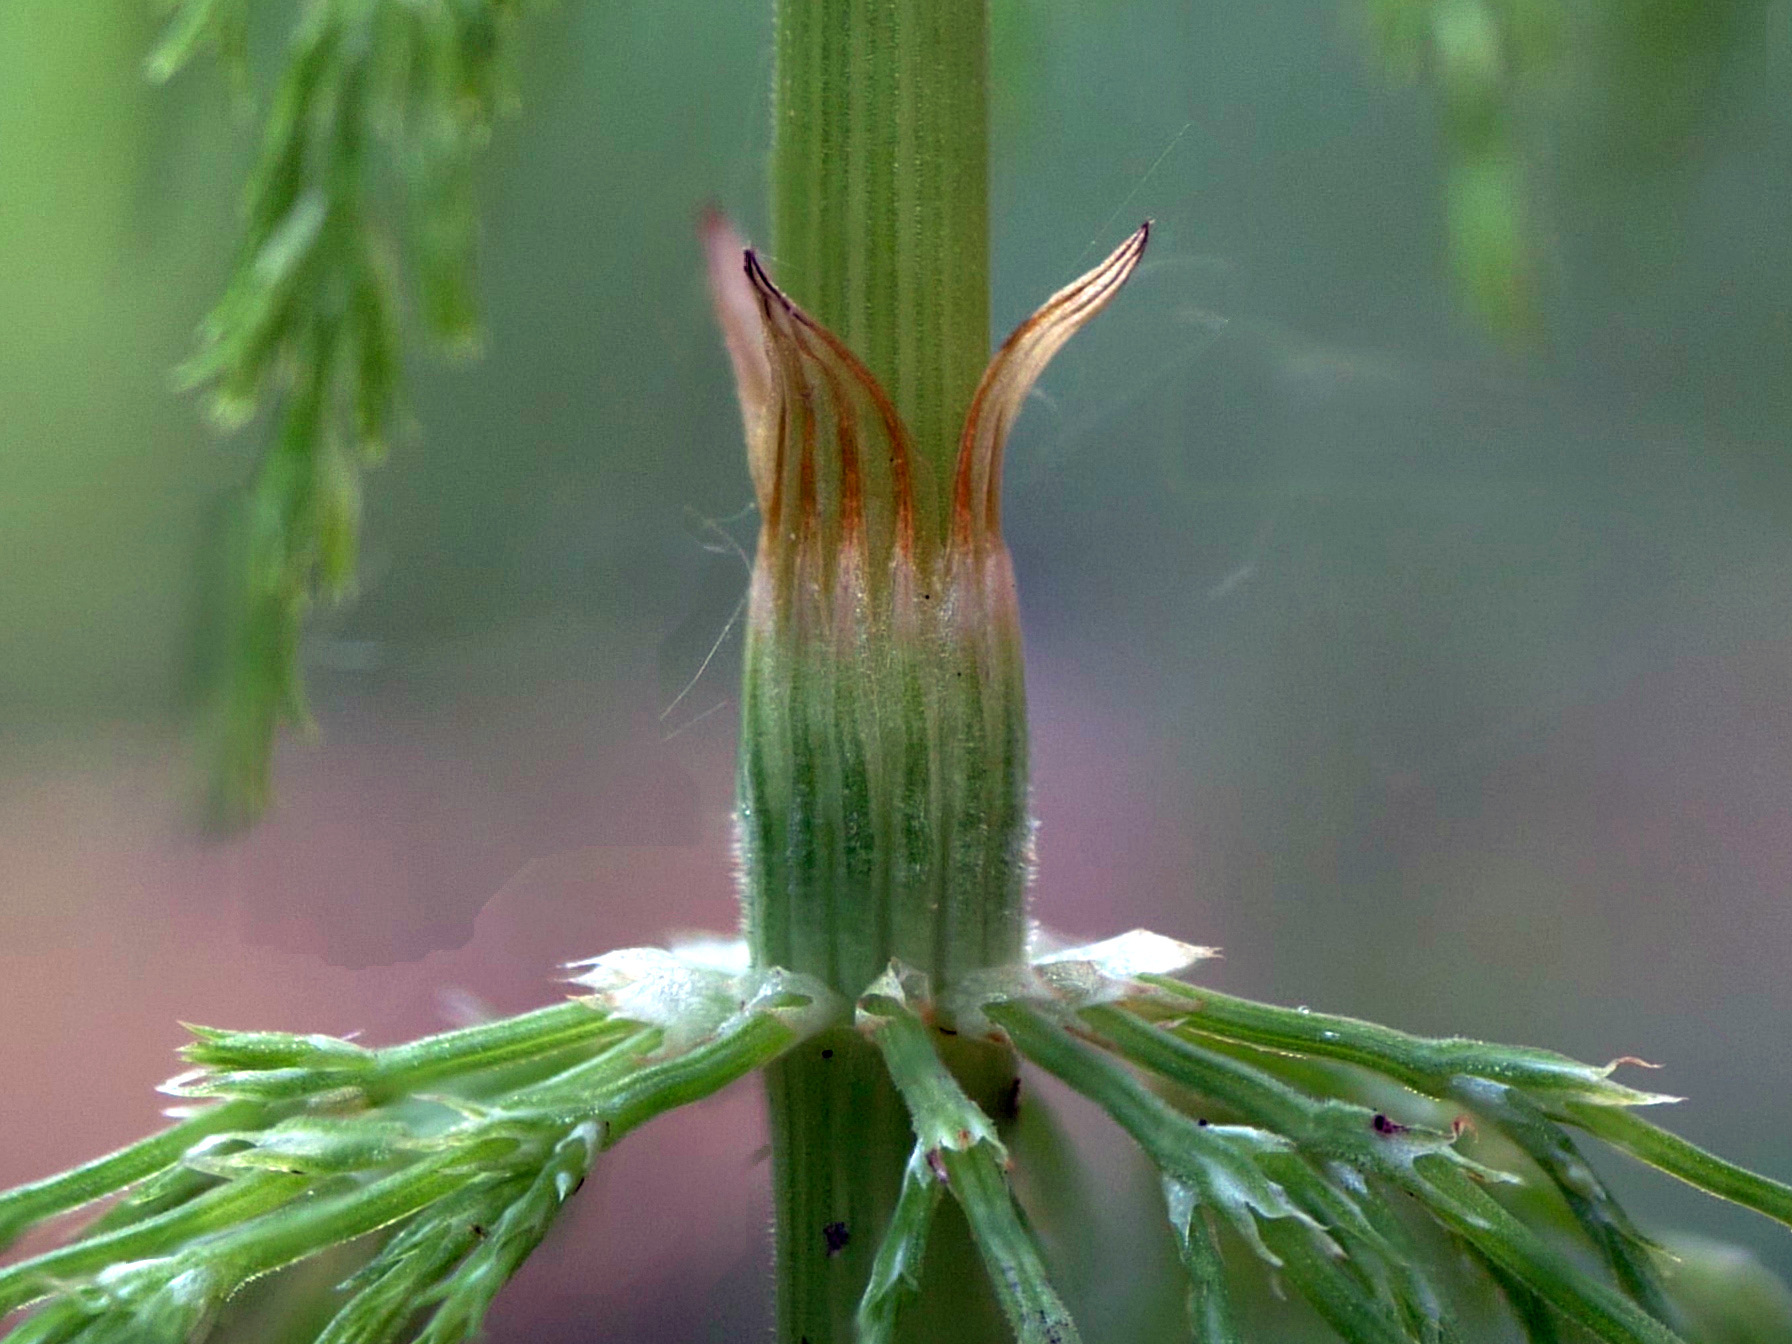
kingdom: Plantae
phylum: Tracheophyta
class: Polypodiopsida
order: Equisetales
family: Equisetaceae
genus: Equisetum
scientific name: Equisetum sylvaticum
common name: Wood horsetail
